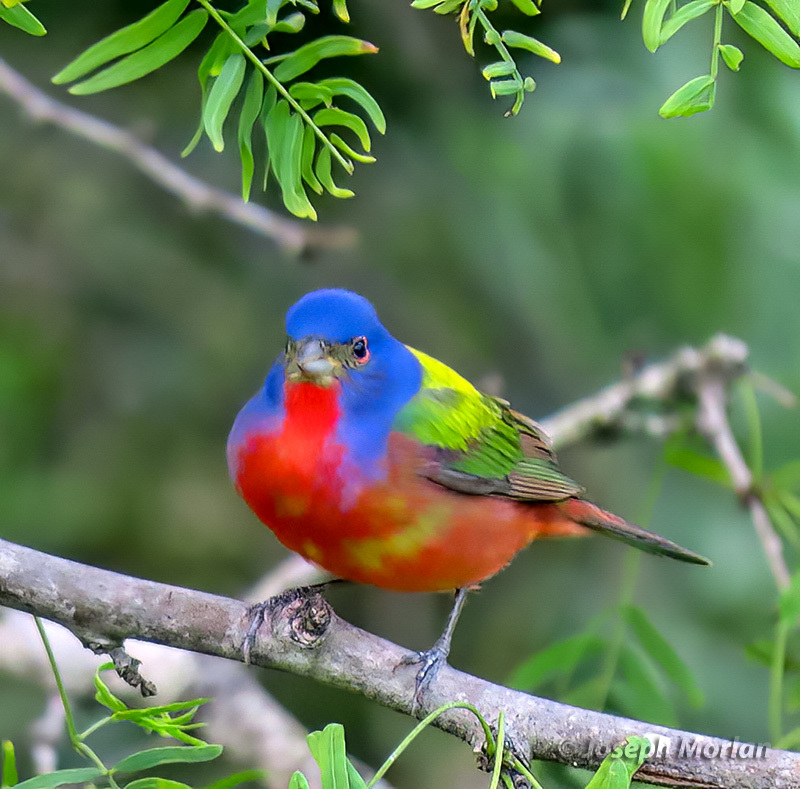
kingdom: Animalia
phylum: Chordata
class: Aves
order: Passeriformes
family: Cardinalidae
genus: Passerina
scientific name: Passerina ciris
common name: Painted bunting
